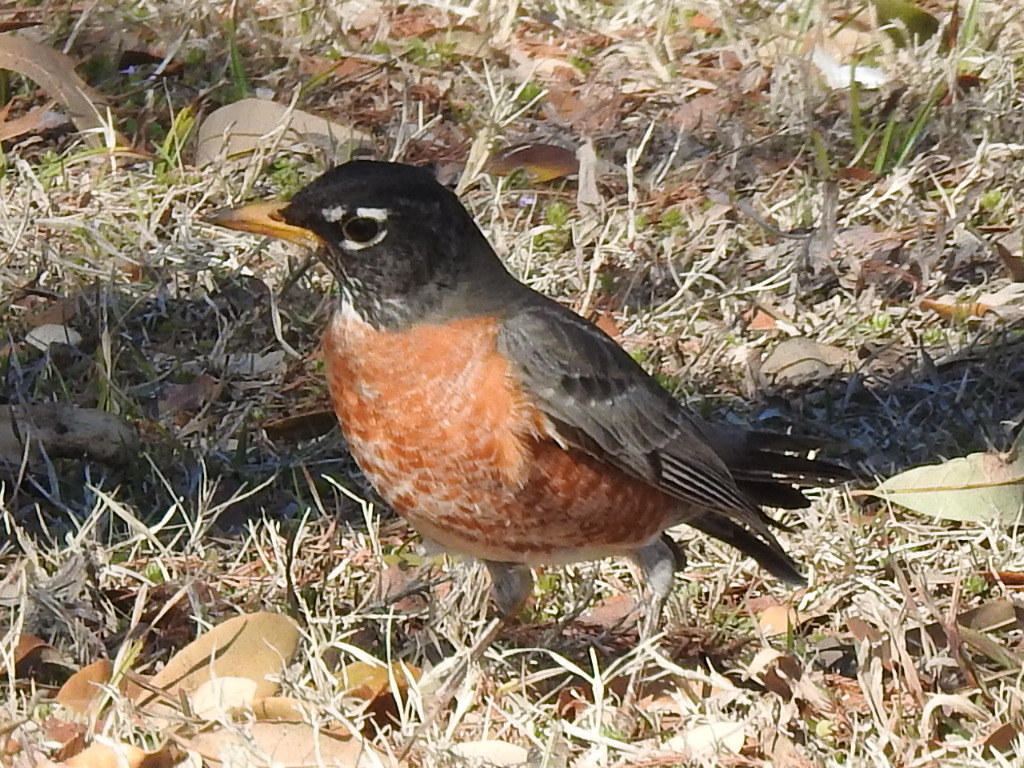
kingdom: Animalia
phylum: Chordata
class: Aves
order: Passeriformes
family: Turdidae
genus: Turdus
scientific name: Turdus migratorius
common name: American robin
